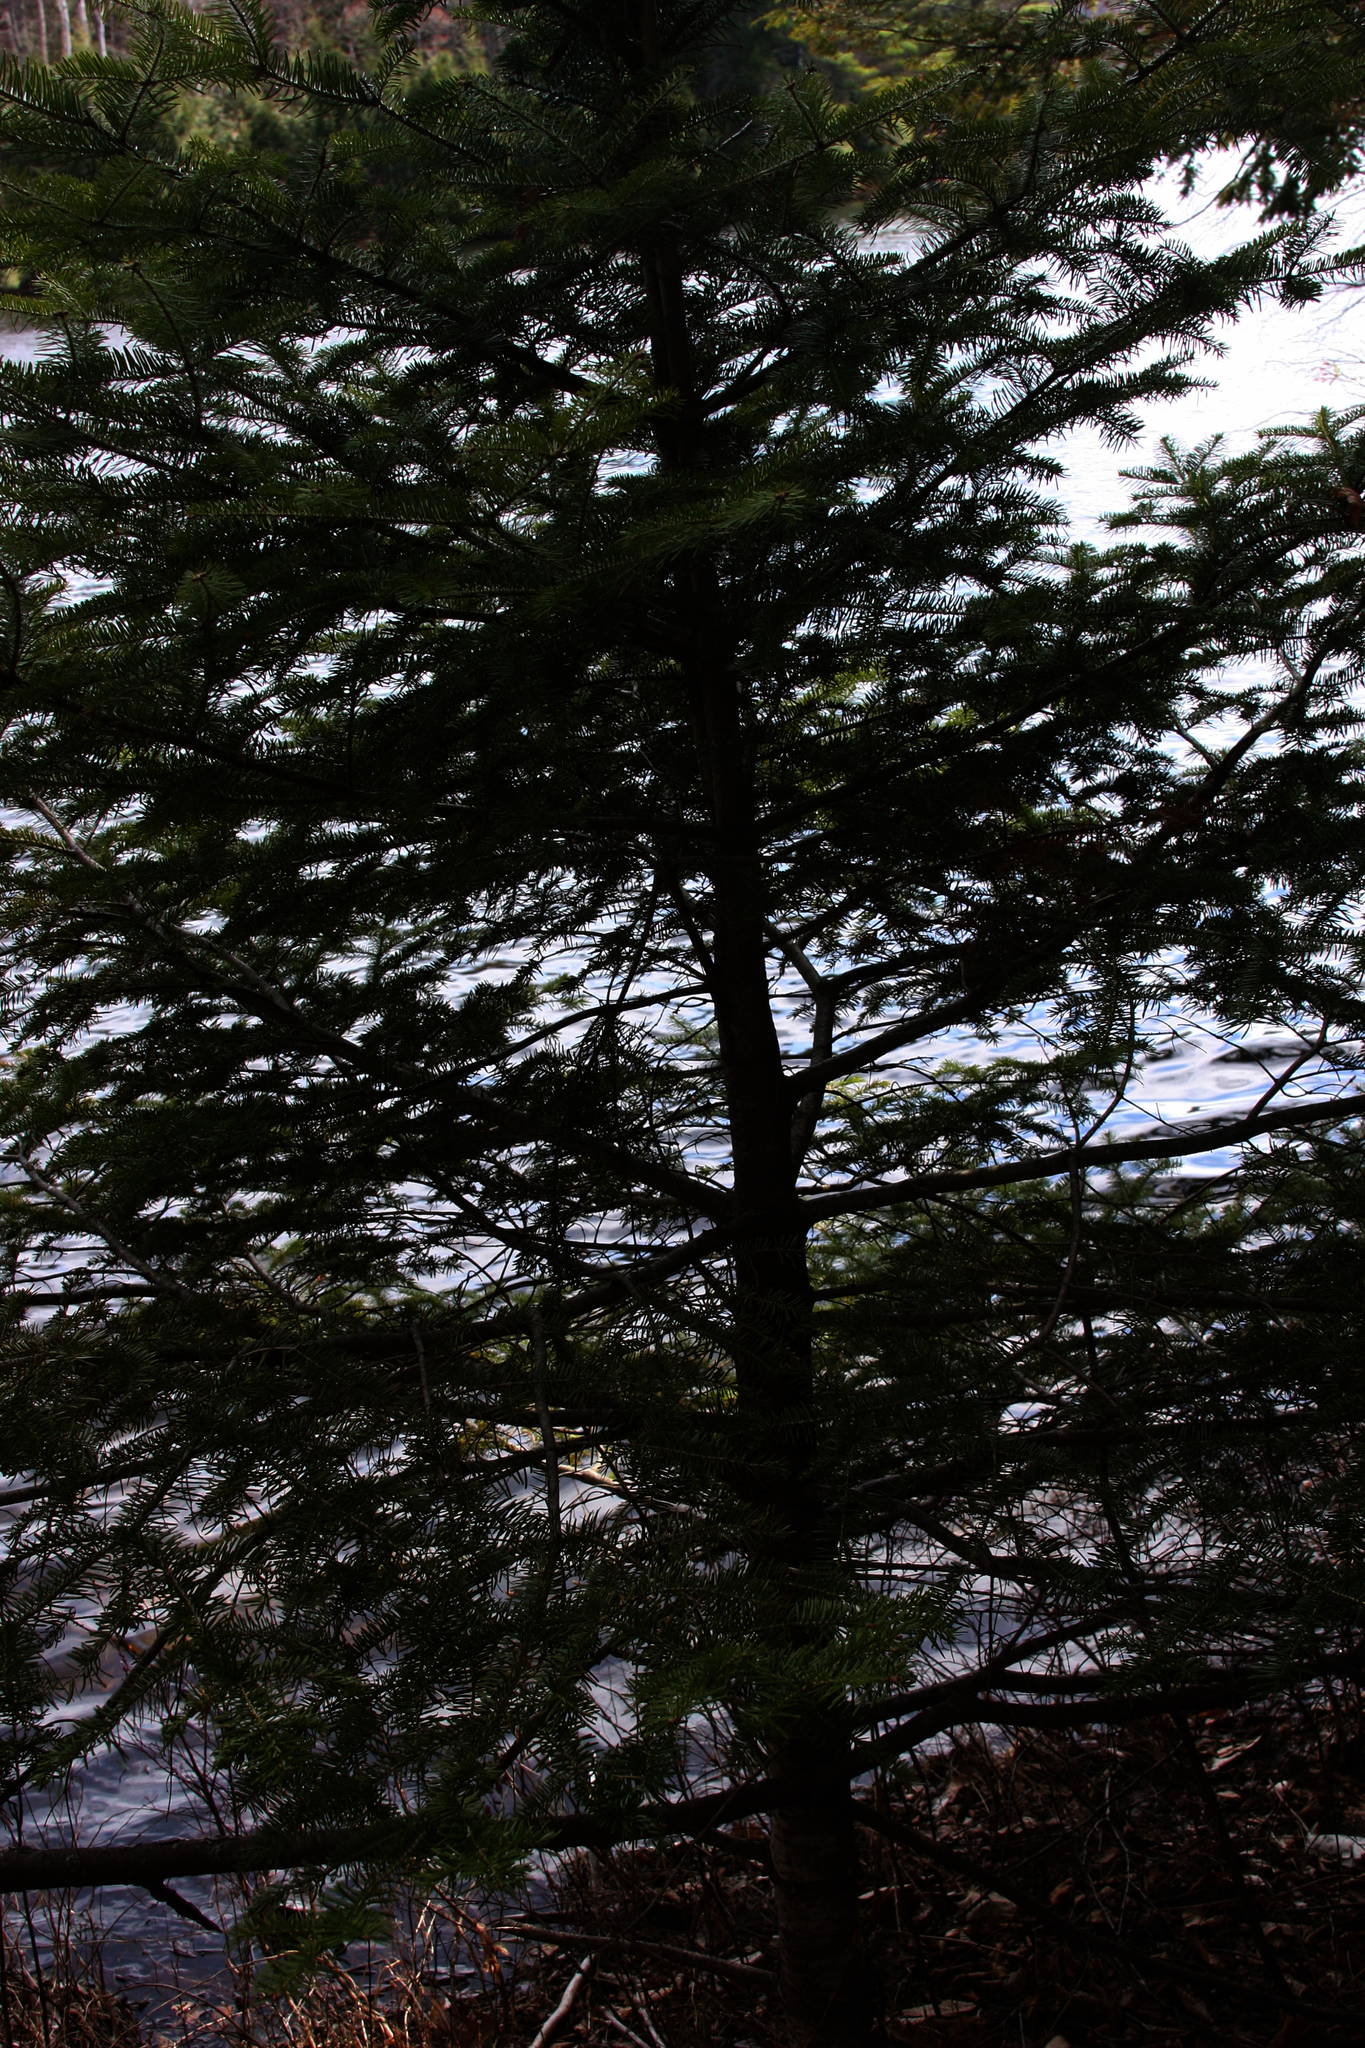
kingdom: Plantae
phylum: Tracheophyta
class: Pinopsida
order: Pinales
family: Pinaceae
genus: Abies
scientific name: Abies balsamea
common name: Balsam fir
